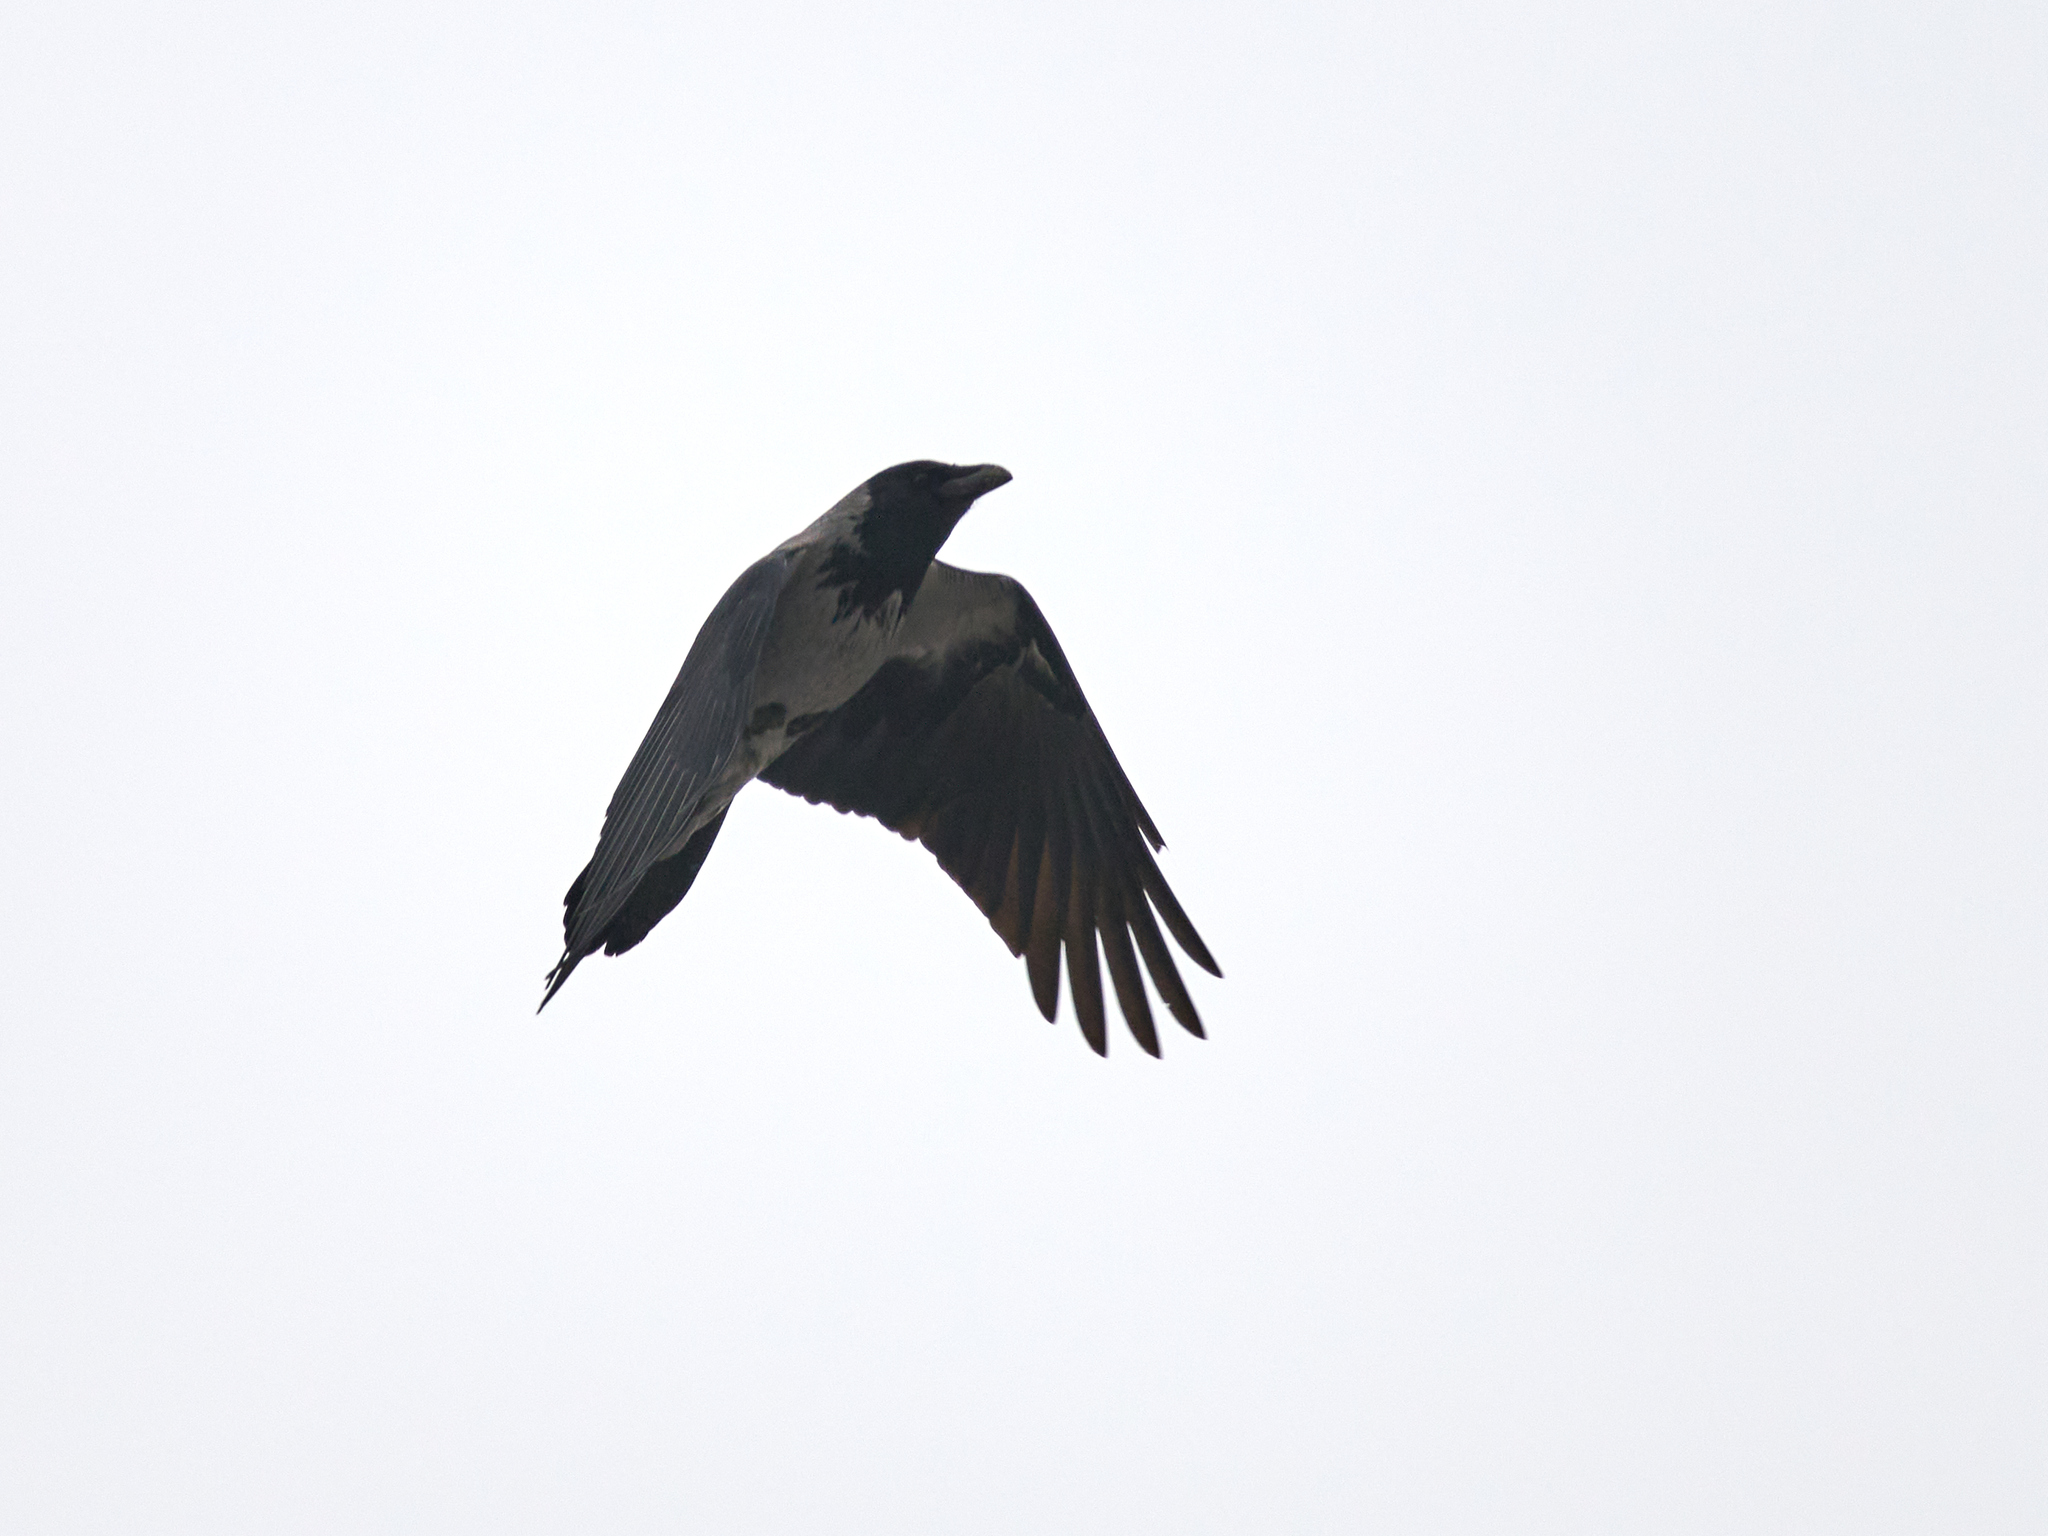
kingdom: Animalia
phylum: Chordata
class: Aves
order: Passeriformes
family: Corvidae
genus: Corvus
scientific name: Corvus cornix
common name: Hooded crow
